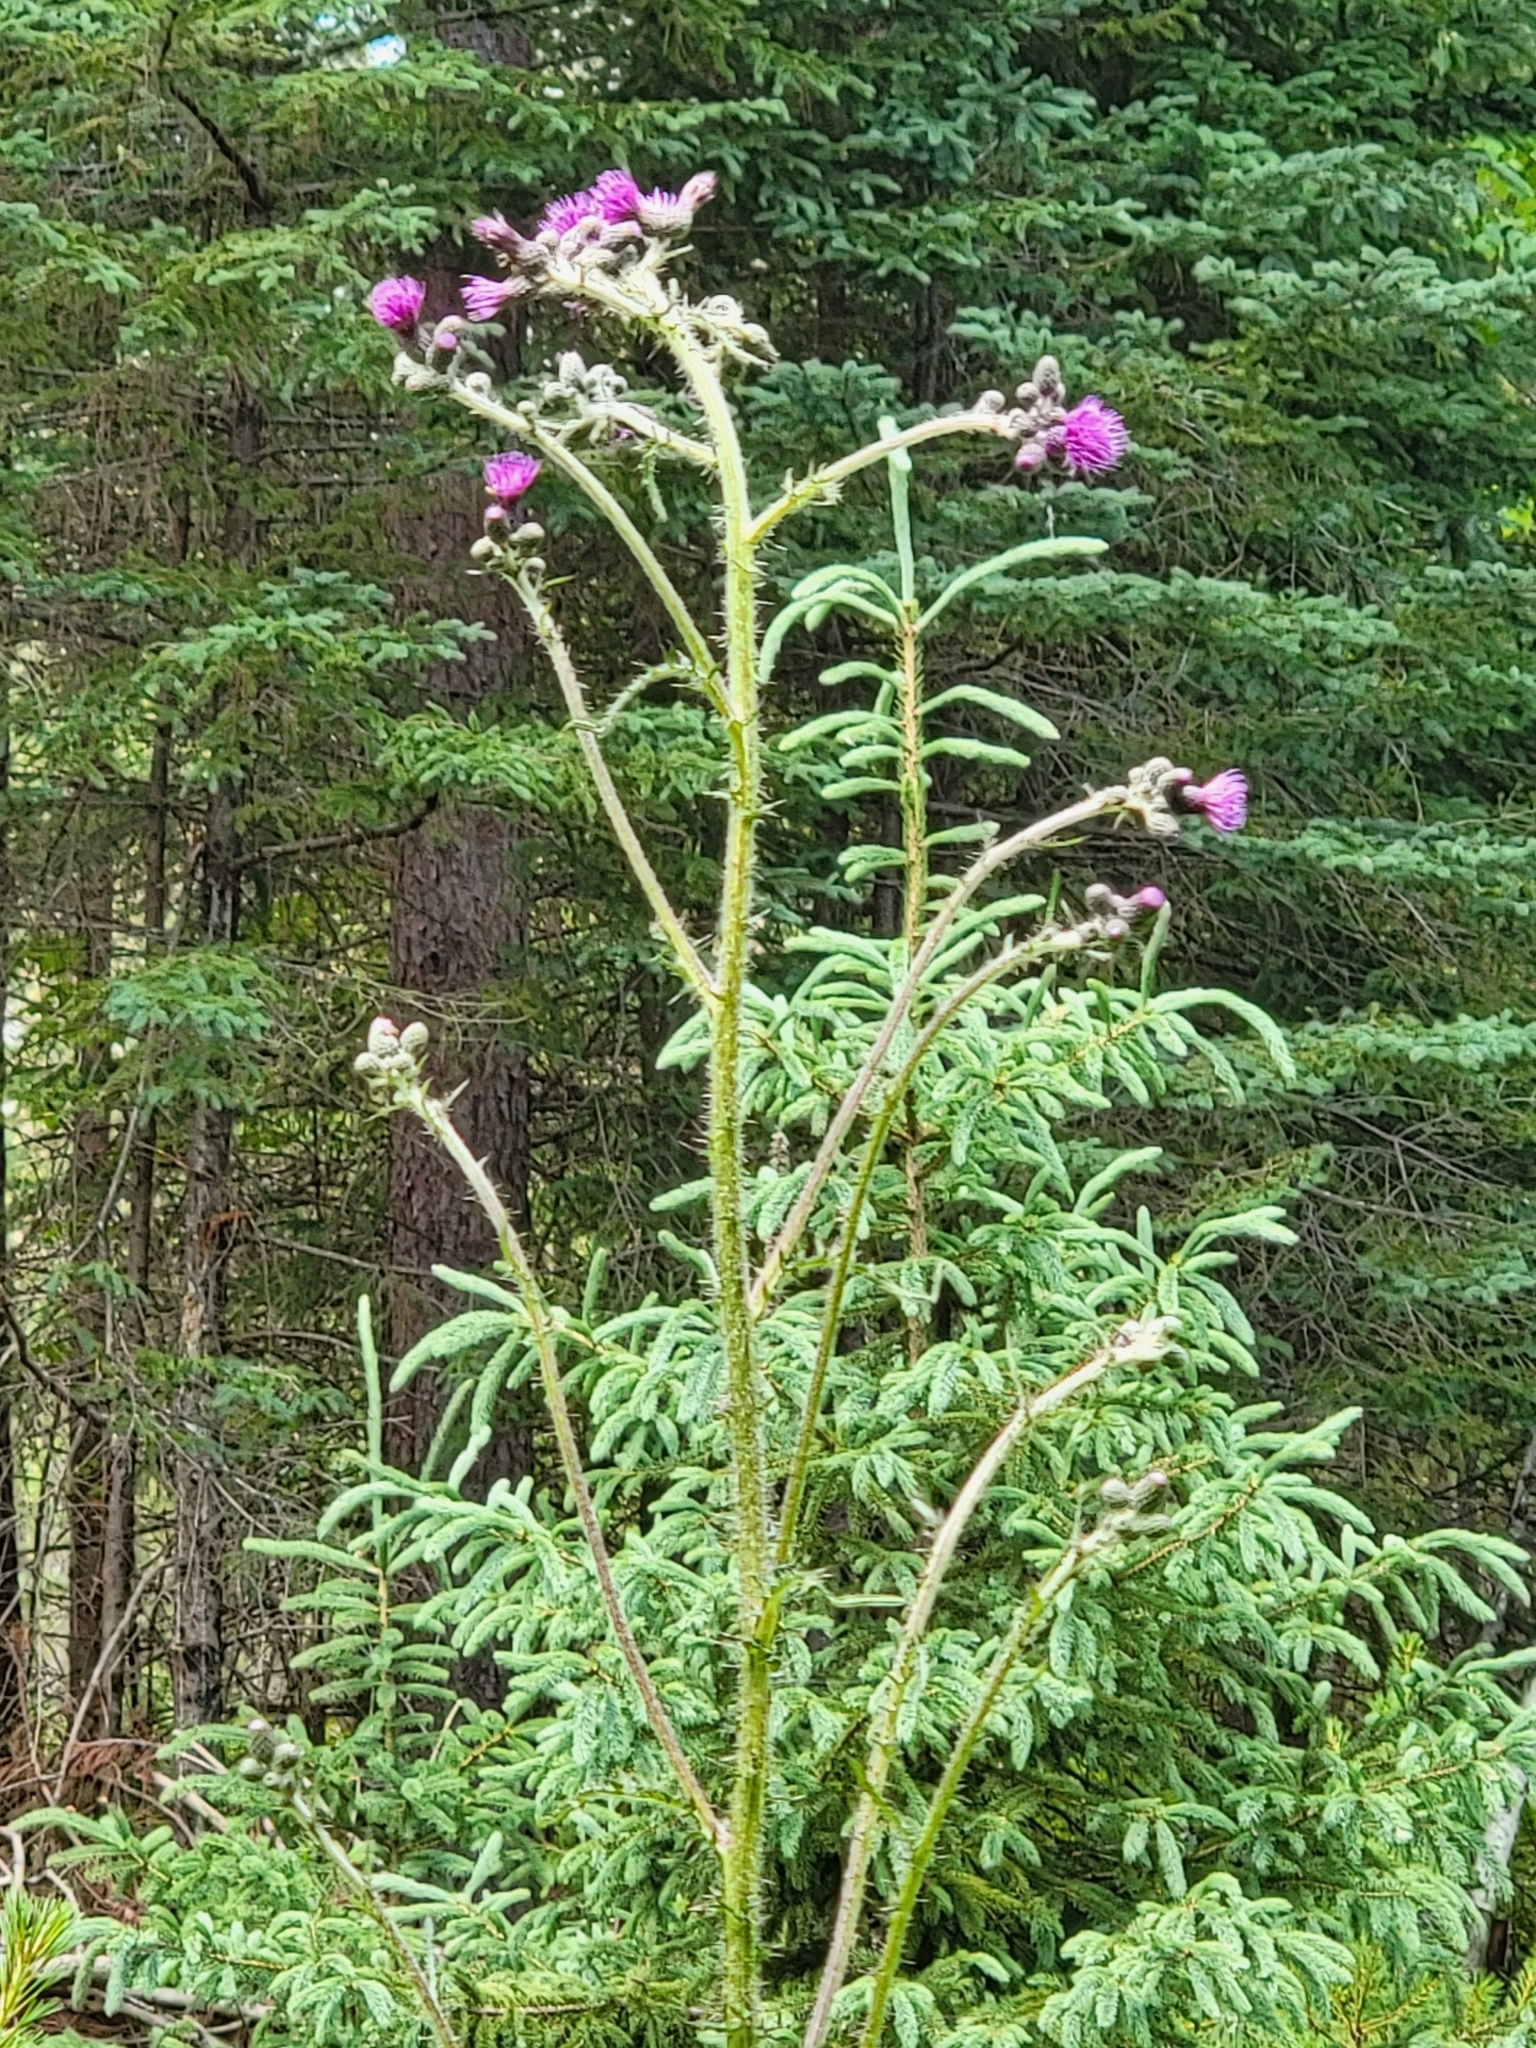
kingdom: Plantae
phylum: Tracheophyta
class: Magnoliopsida
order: Asterales
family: Asteraceae
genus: Cirsium
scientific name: Cirsium palustre
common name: Marsh thistle
